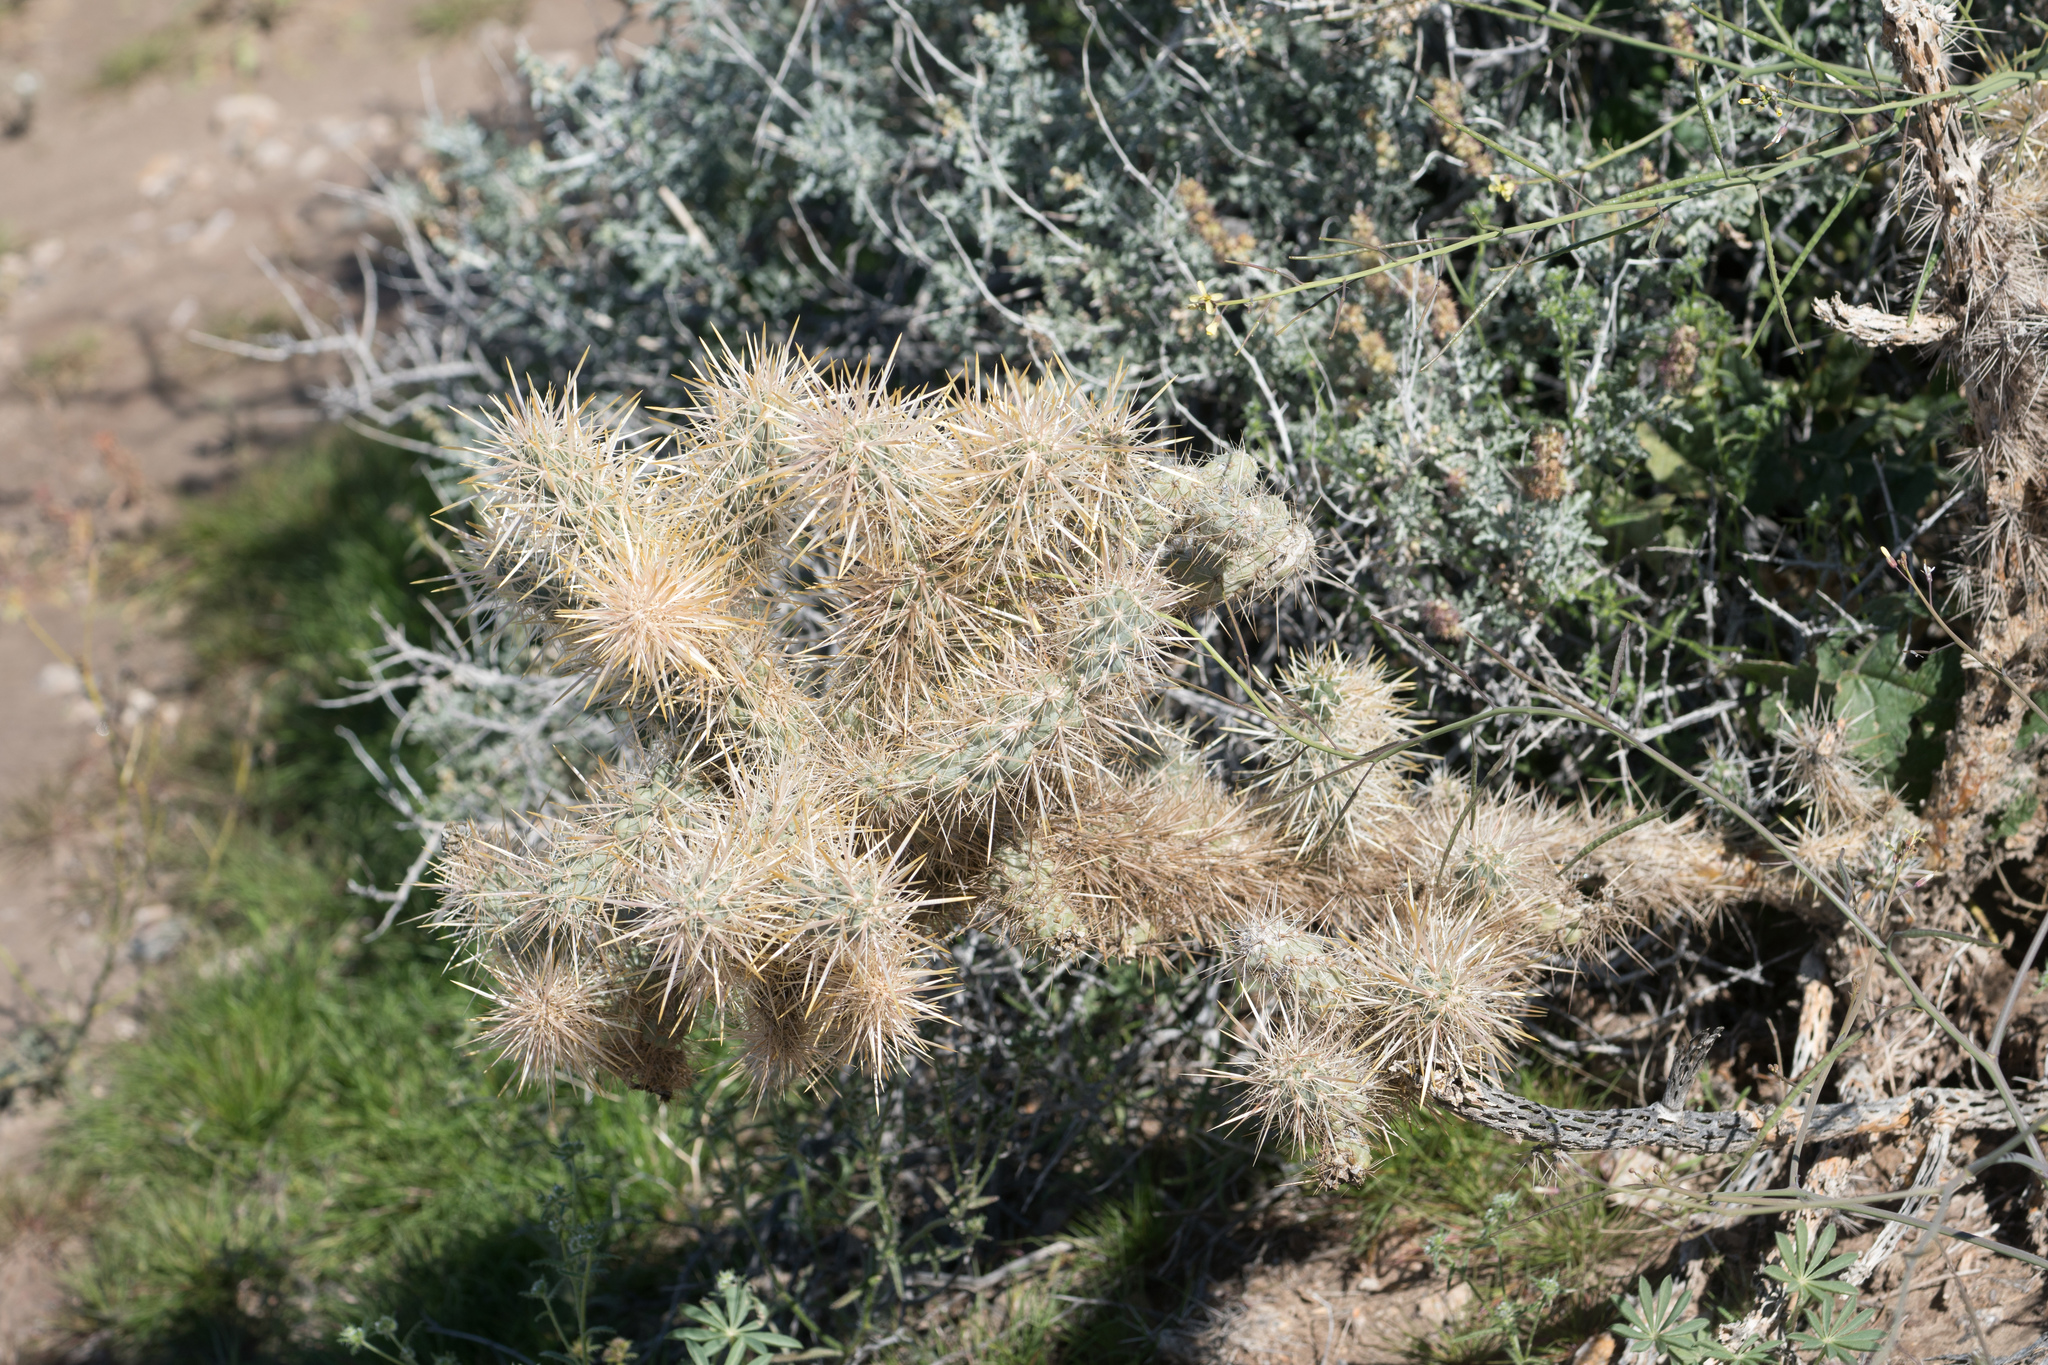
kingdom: Plantae
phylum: Tracheophyta
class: Magnoliopsida
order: Caryophyllales
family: Cactaceae
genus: Cylindropuntia
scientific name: Cylindropuntia echinocarpa
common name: Ground cholla
